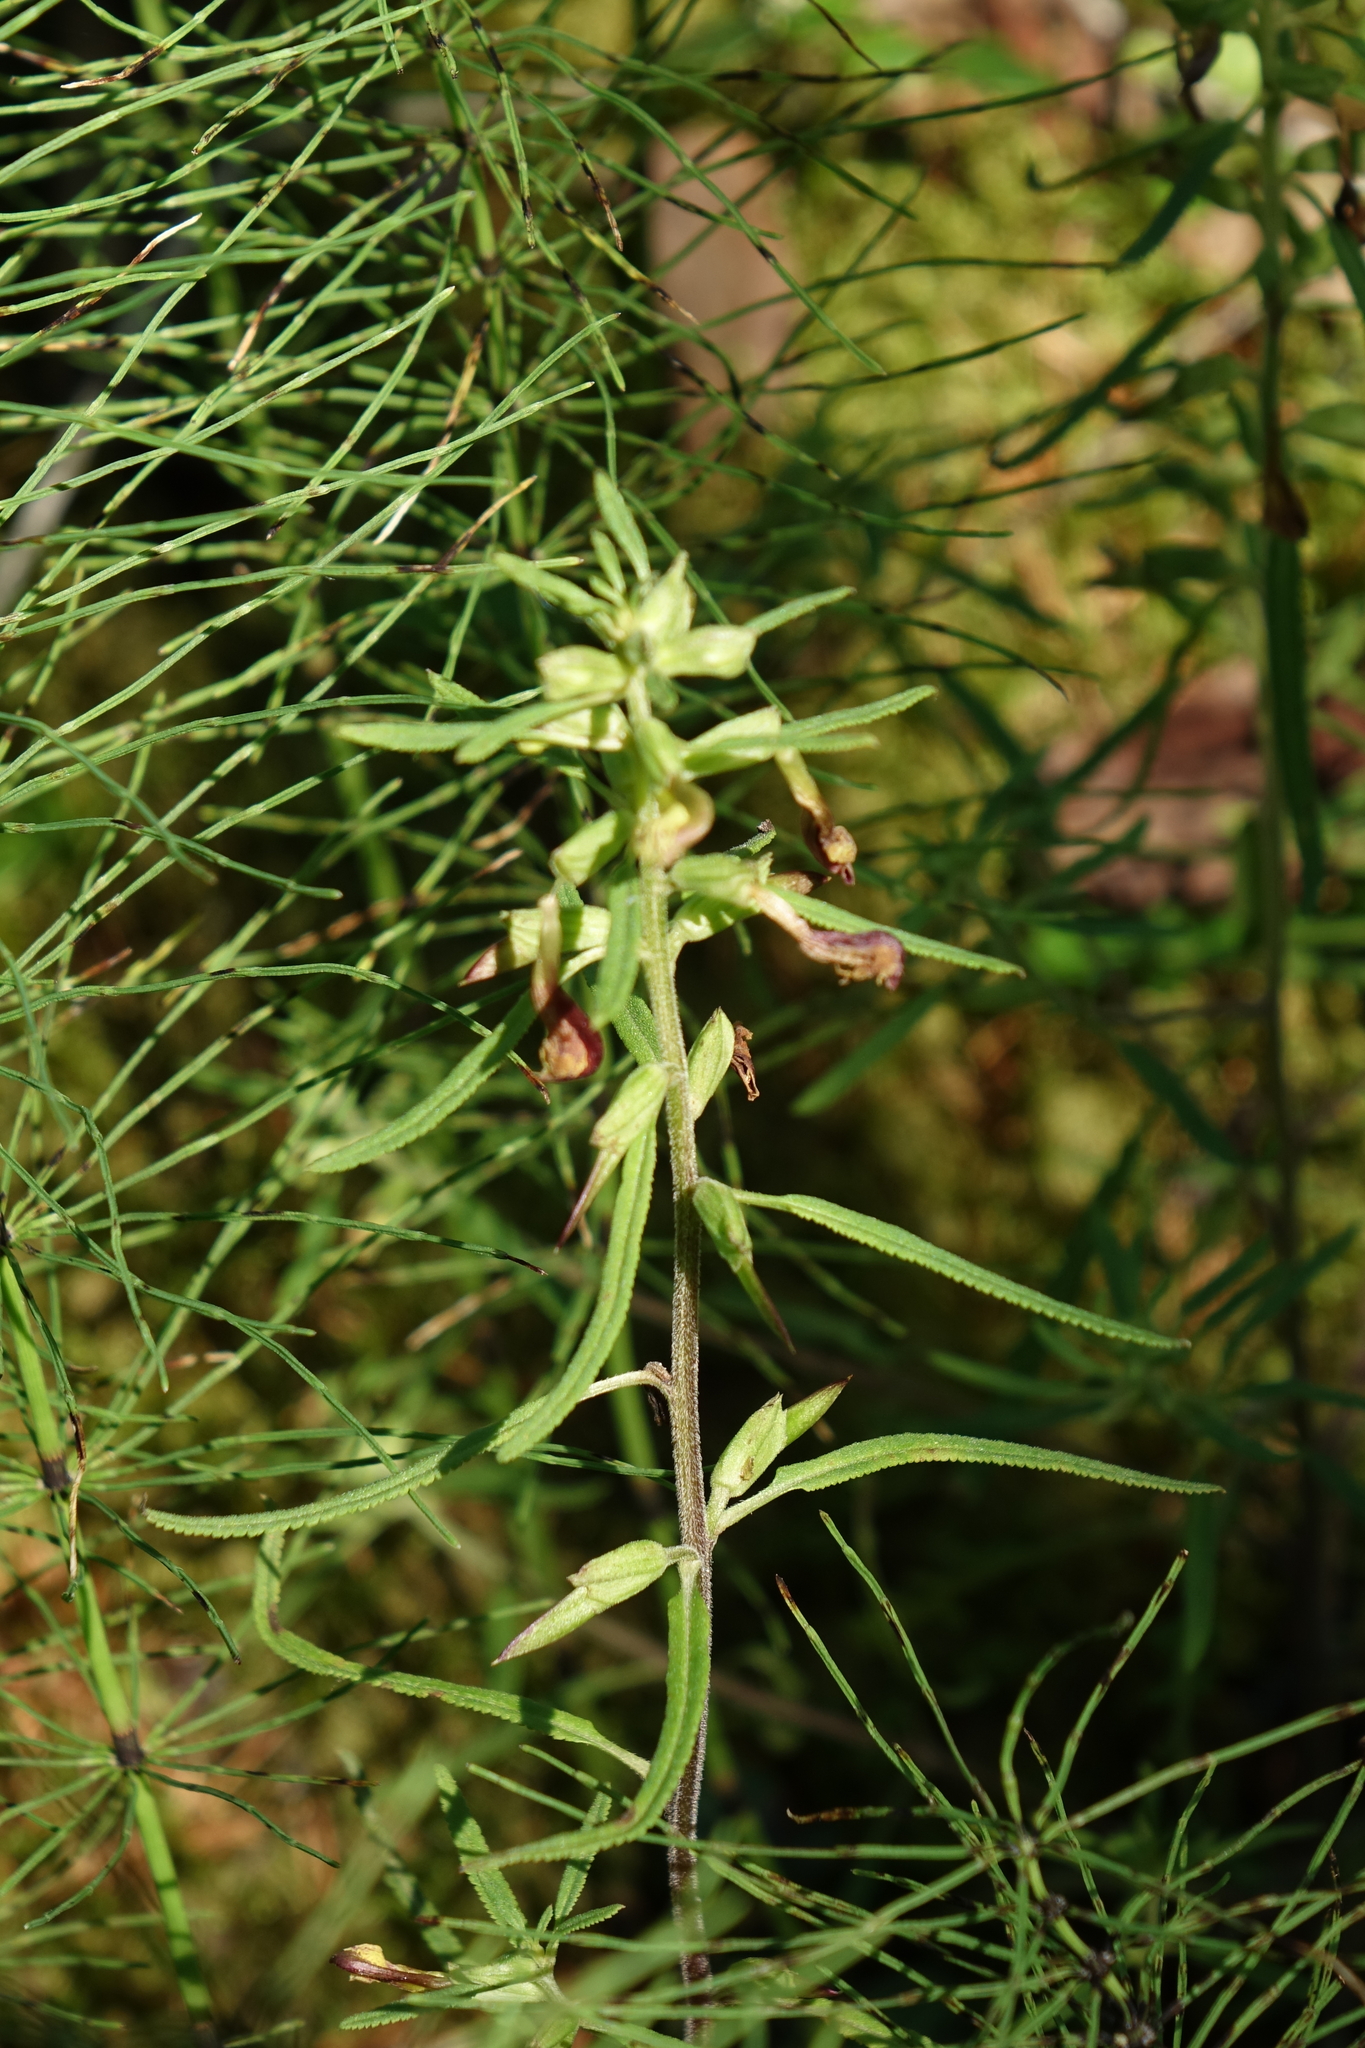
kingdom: Plantae
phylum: Tracheophyta
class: Magnoliopsida
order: Lamiales
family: Orobanchaceae
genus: Pedicularis
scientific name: Pedicularis labradorica
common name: Labrador lousewort
